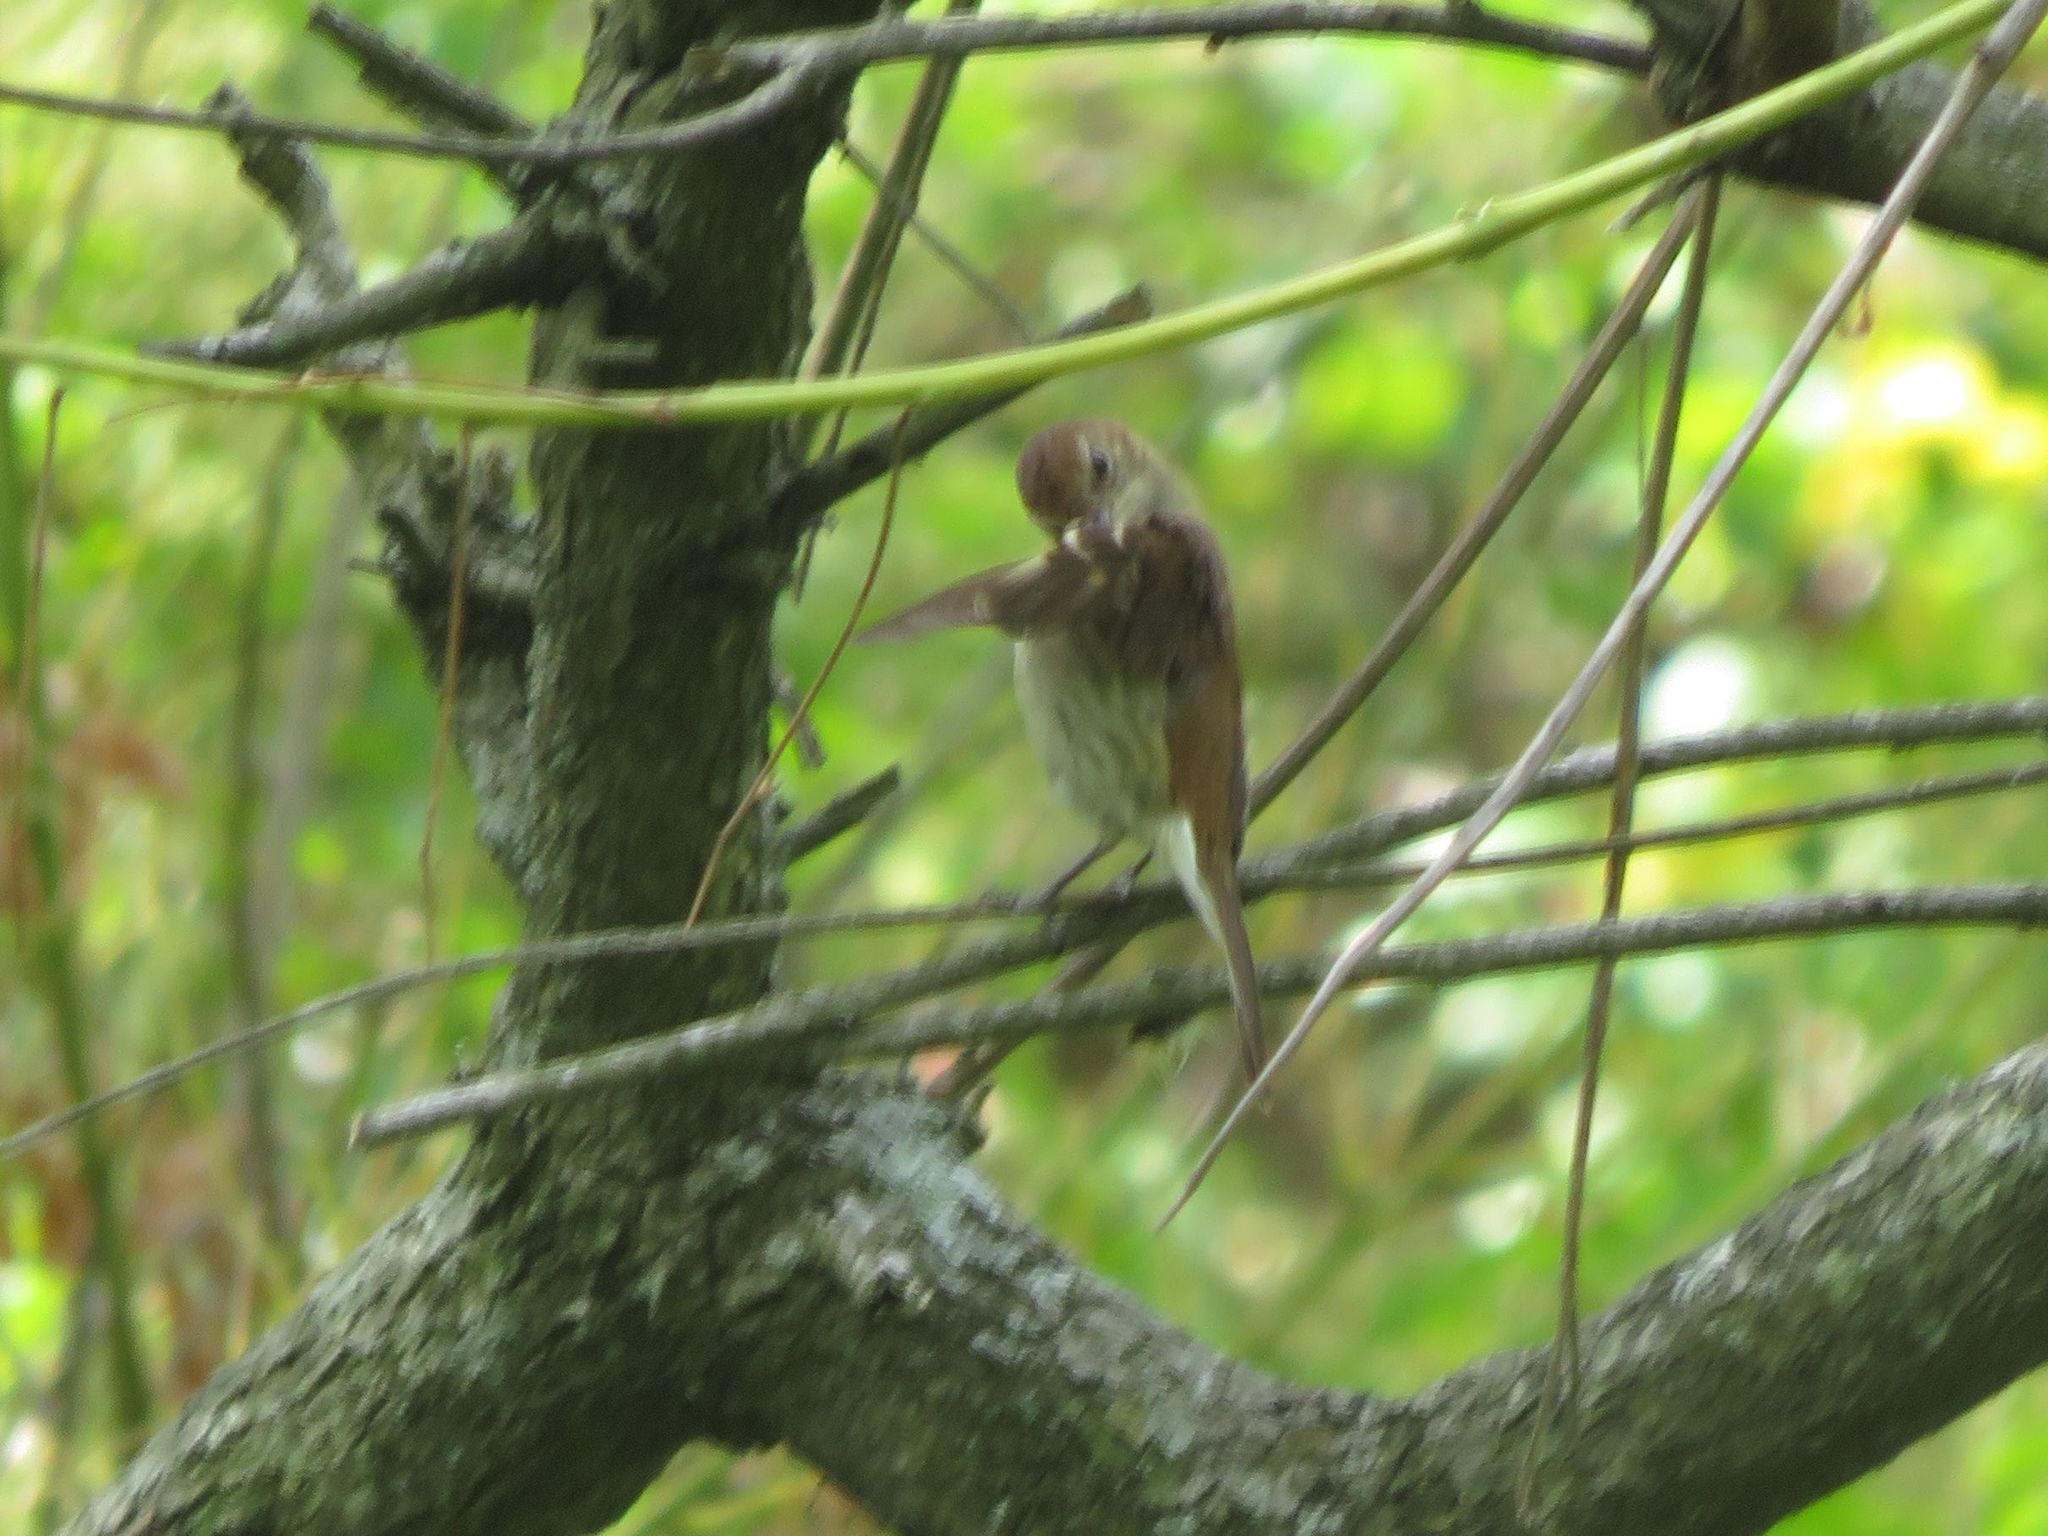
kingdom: Animalia
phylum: Chordata
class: Aves
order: Passeriformes
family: Tyrannidae
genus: Myiophobus
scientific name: Myiophobus fasciatus
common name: Bran-colored flycatcher
